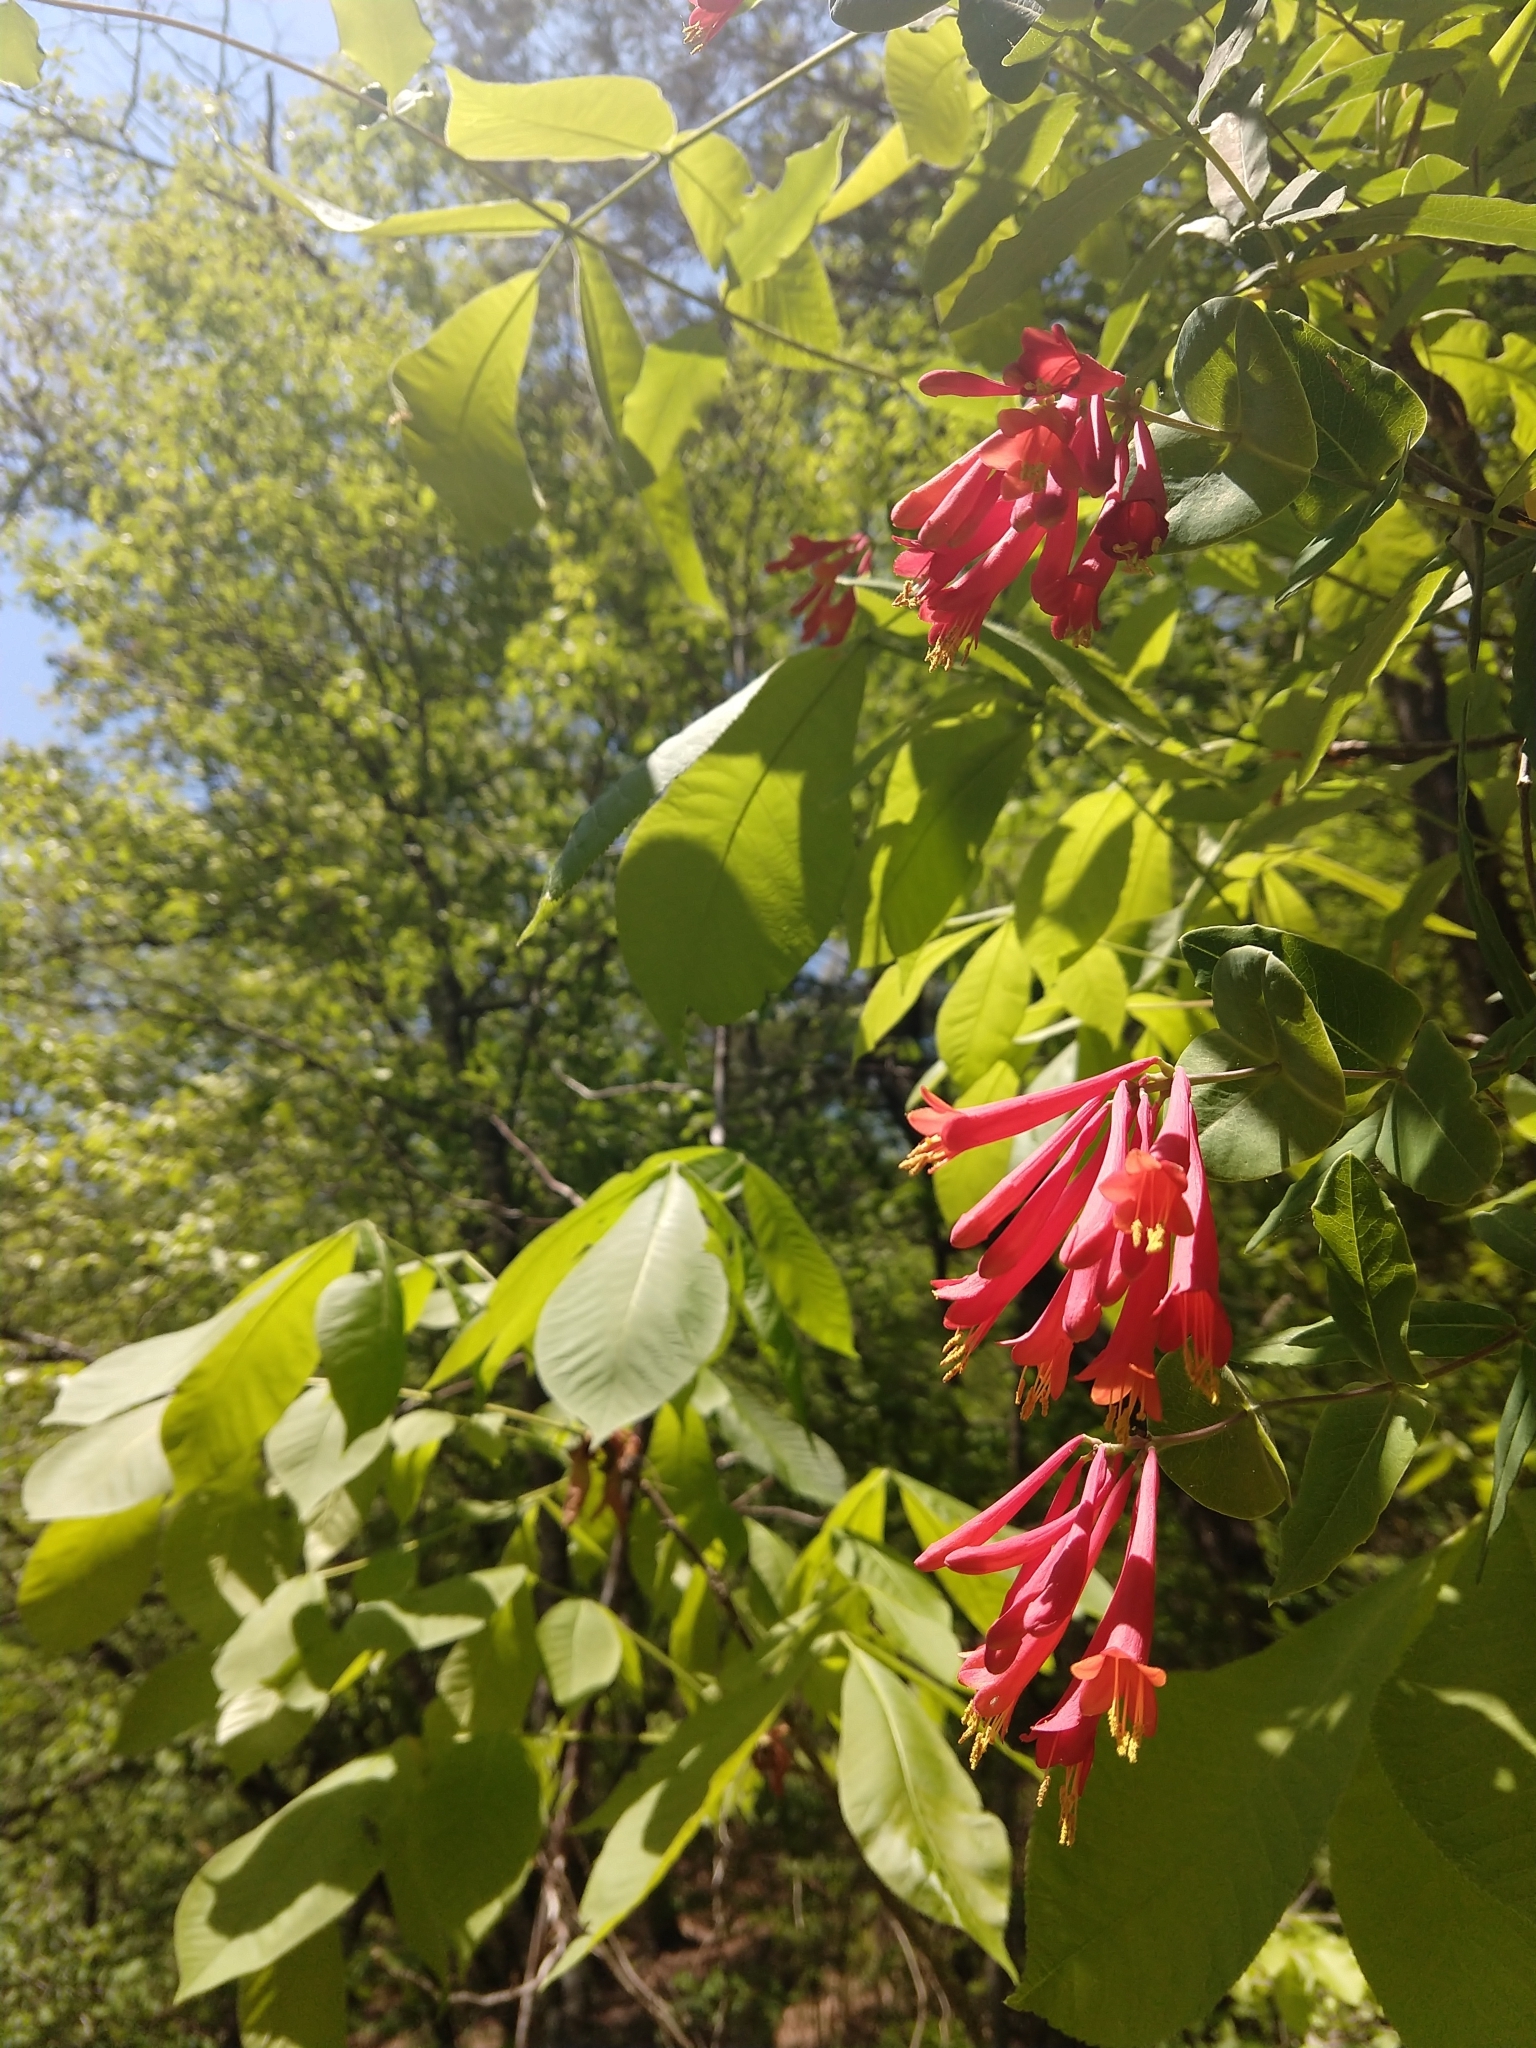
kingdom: Plantae
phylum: Tracheophyta
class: Magnoliopsida
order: Dipsacales
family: Caprifoliaceae
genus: Lonicera
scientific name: Lonicera sempervirens
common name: Coral honeysuckle
